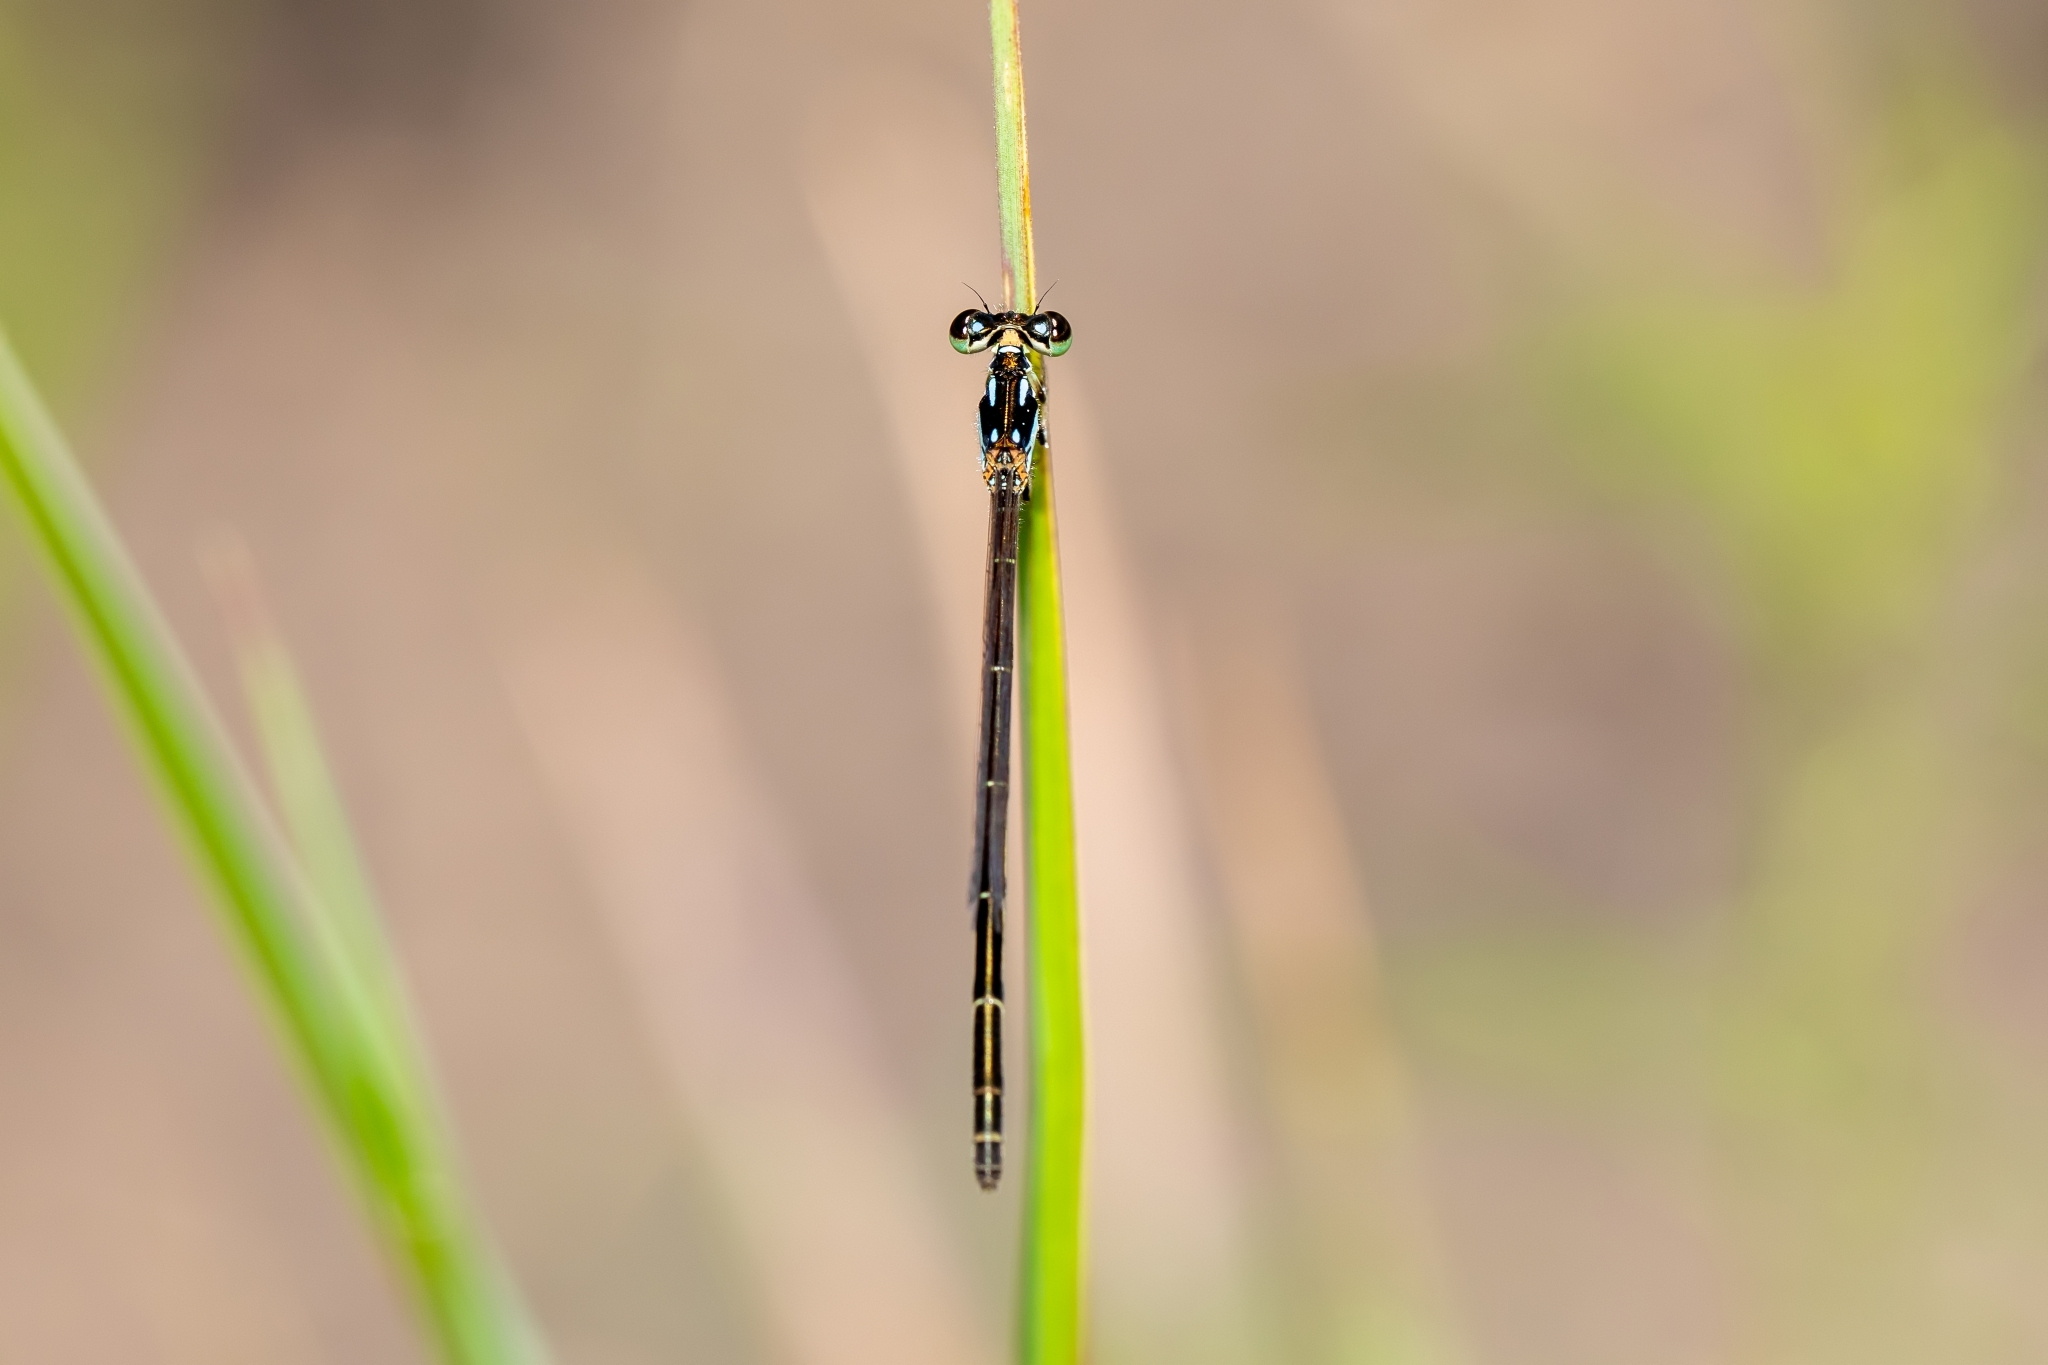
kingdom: Animalia
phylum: Arthropoda
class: Insecta
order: Odonata
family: Coenagrionidae
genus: Ischnura
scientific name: Ischnura posita
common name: Fragile forktail
